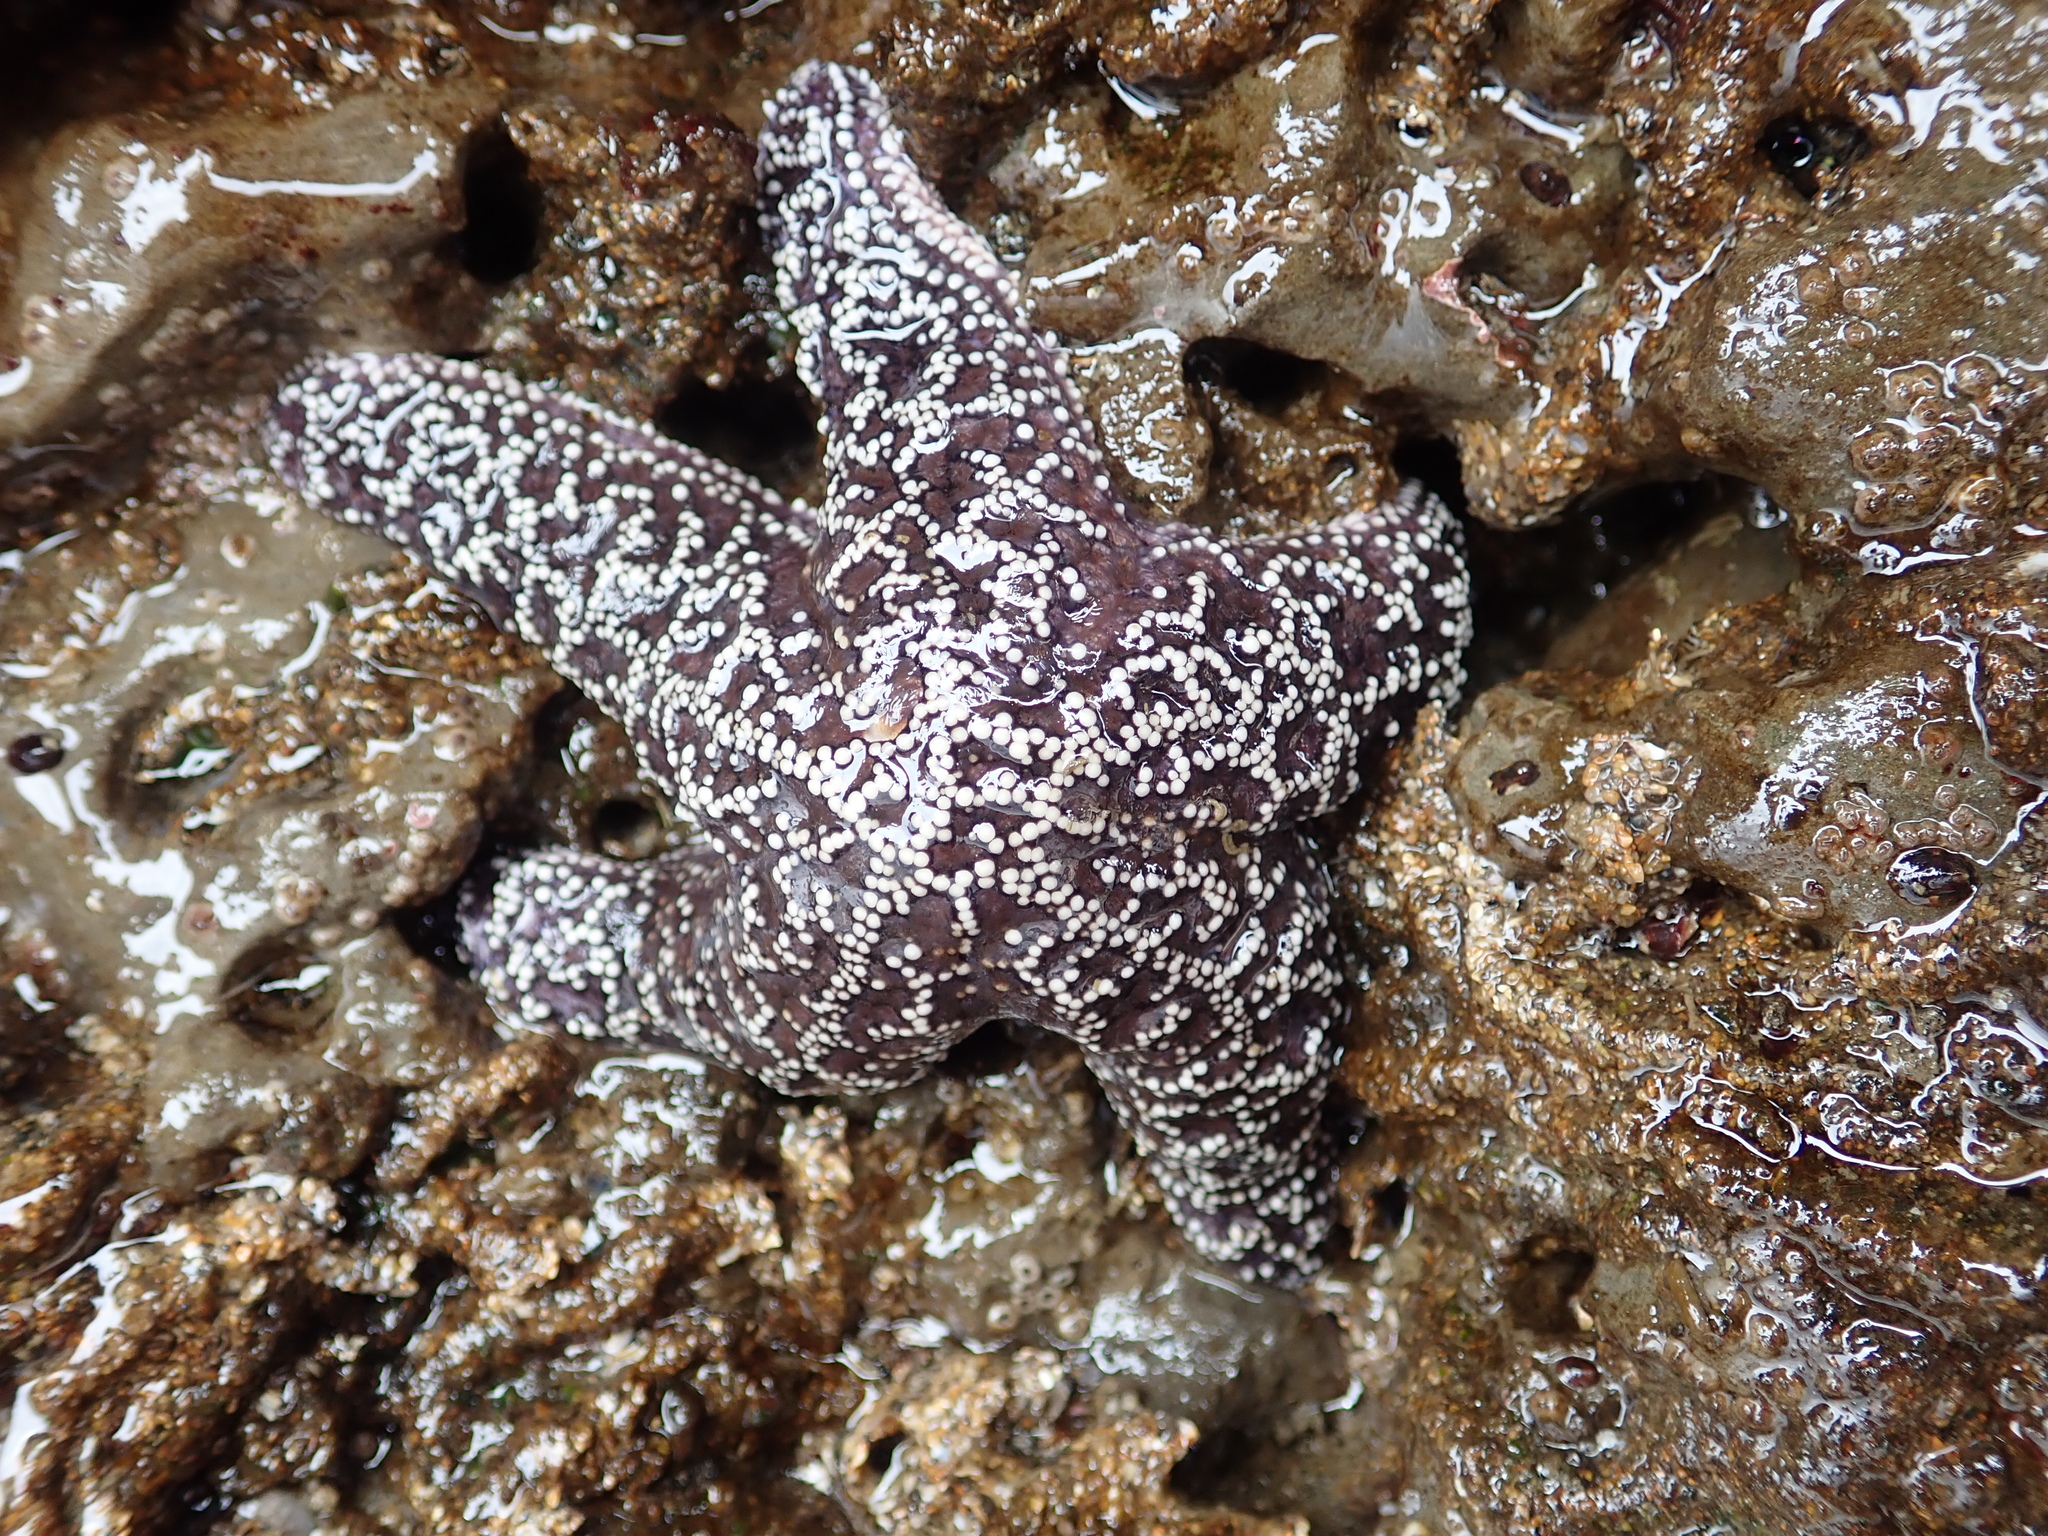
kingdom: Animalia
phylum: Echinodermata
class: Asteroidea
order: Forcipulatida
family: Asteriidae
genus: Pisaster
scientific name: Pisaster ochraceus
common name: Ochre stars
